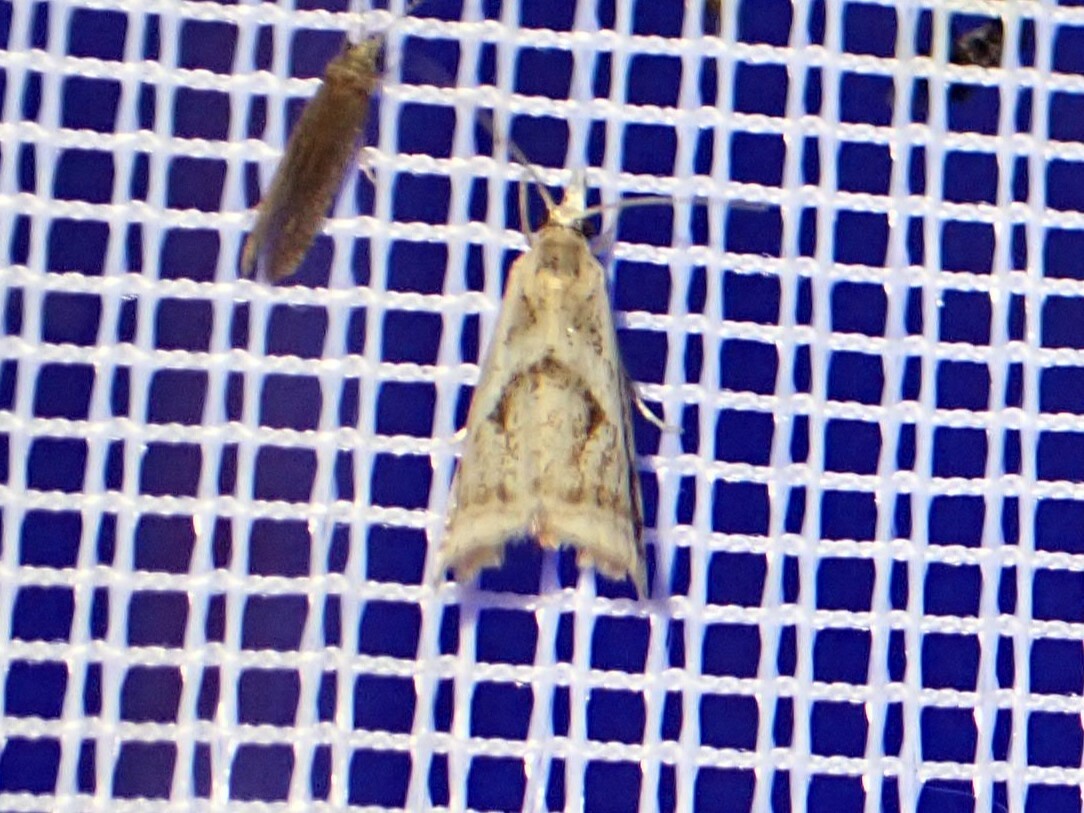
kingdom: Animalia
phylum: Arthropoda
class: Insecta
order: Lepidoptera
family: Crambidae
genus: Microcrambus
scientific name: Microcrambus elegans
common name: Elegant grass-veneer
